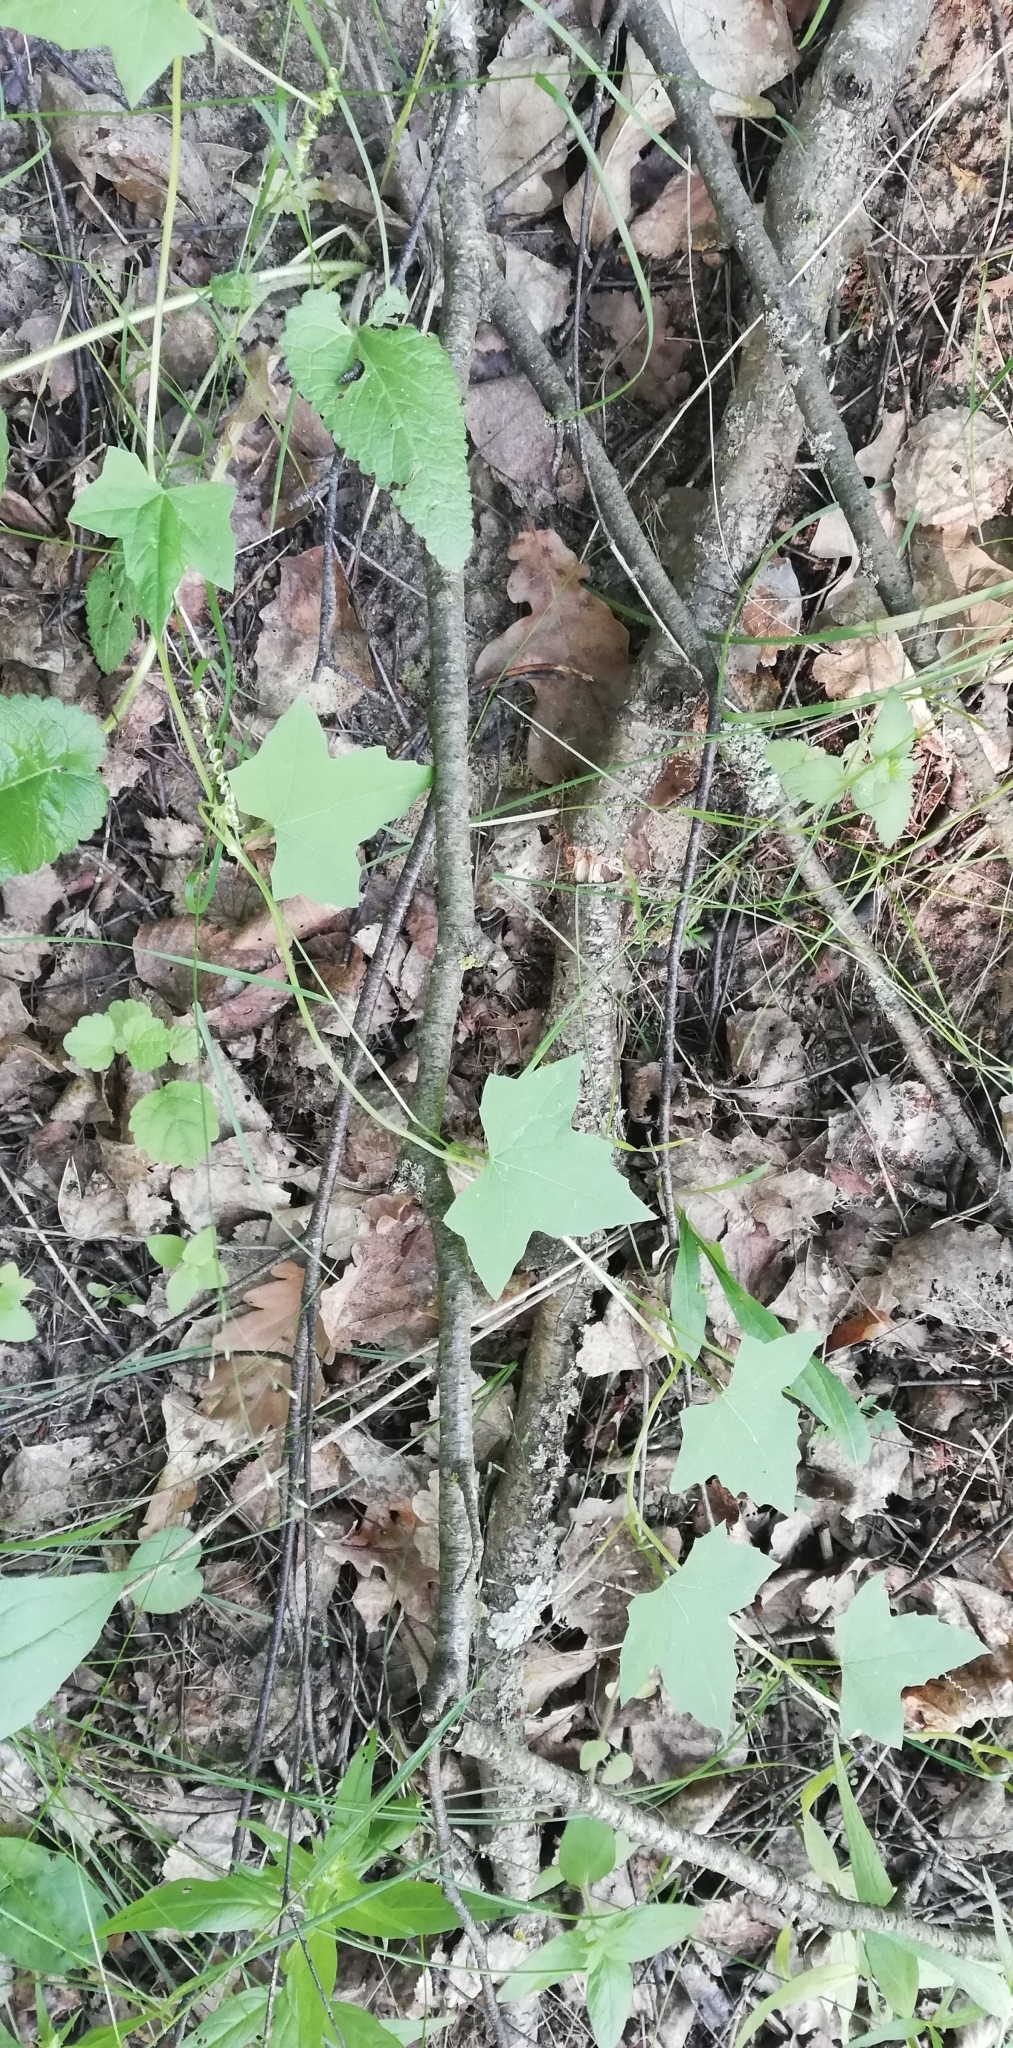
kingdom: Plantae
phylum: Tracheophyta
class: Magnoliopsida
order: Cucurbitales
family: Cucurbitaceae
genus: Echinocystis
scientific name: Echinocystis lobata
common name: Wild cucumber
